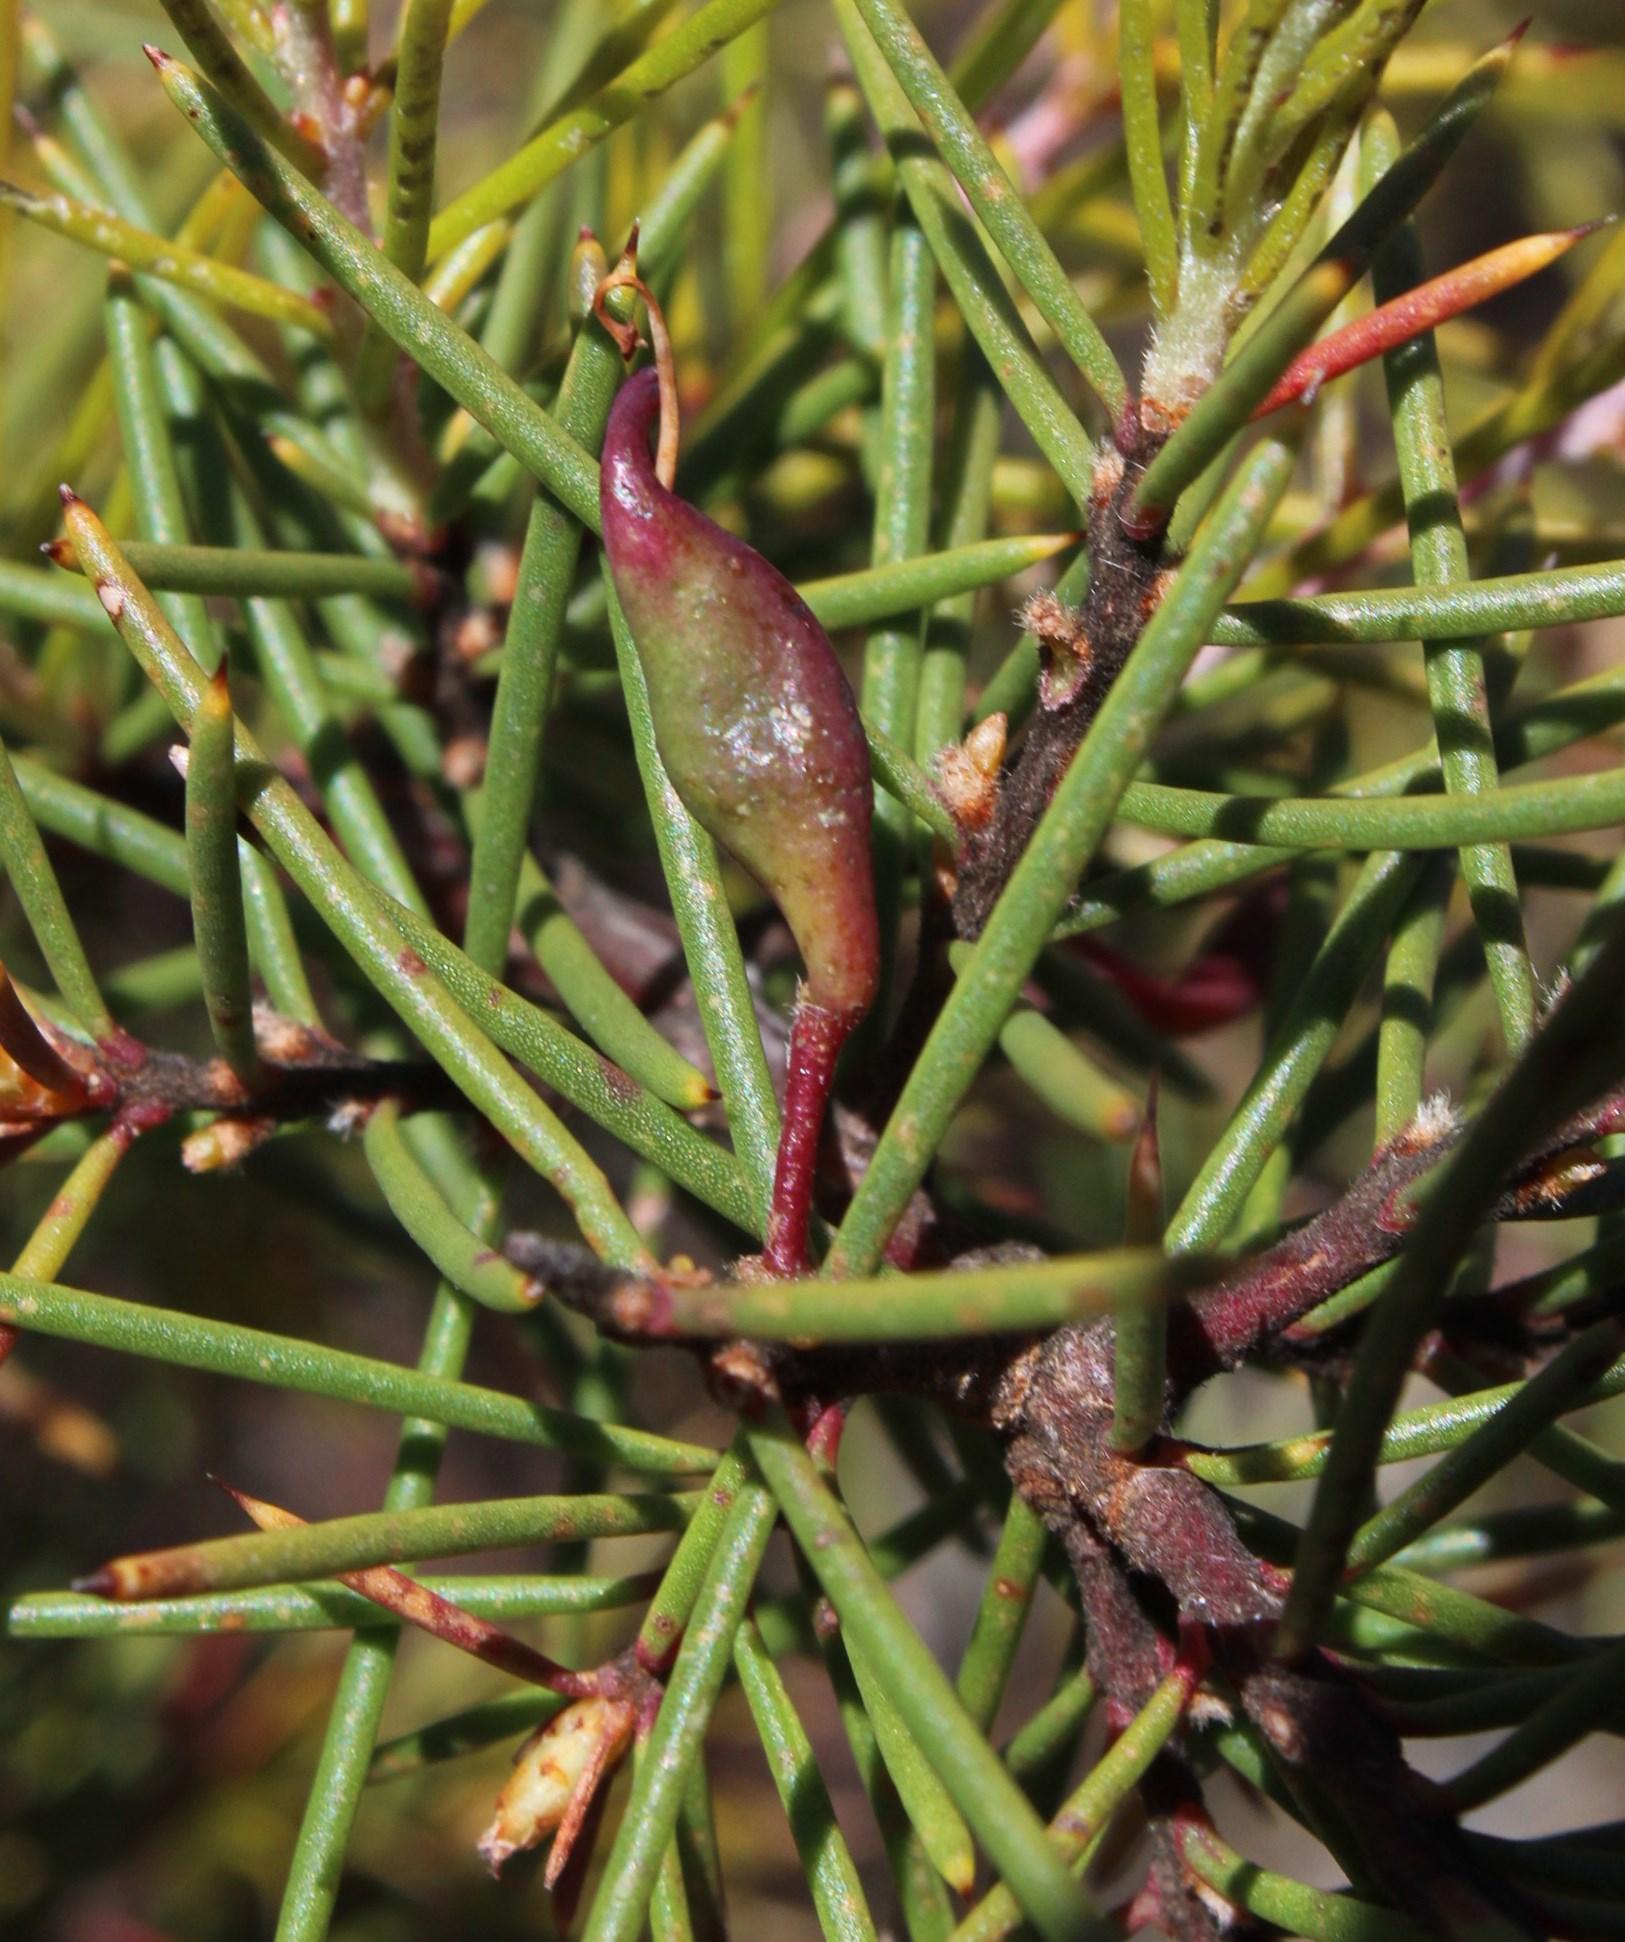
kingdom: Plantae
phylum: Tracheophyta
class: Magnoliopsida
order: Proteales
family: Proteaceae
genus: Hakea
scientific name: Hakea sericea
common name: Needle bush
